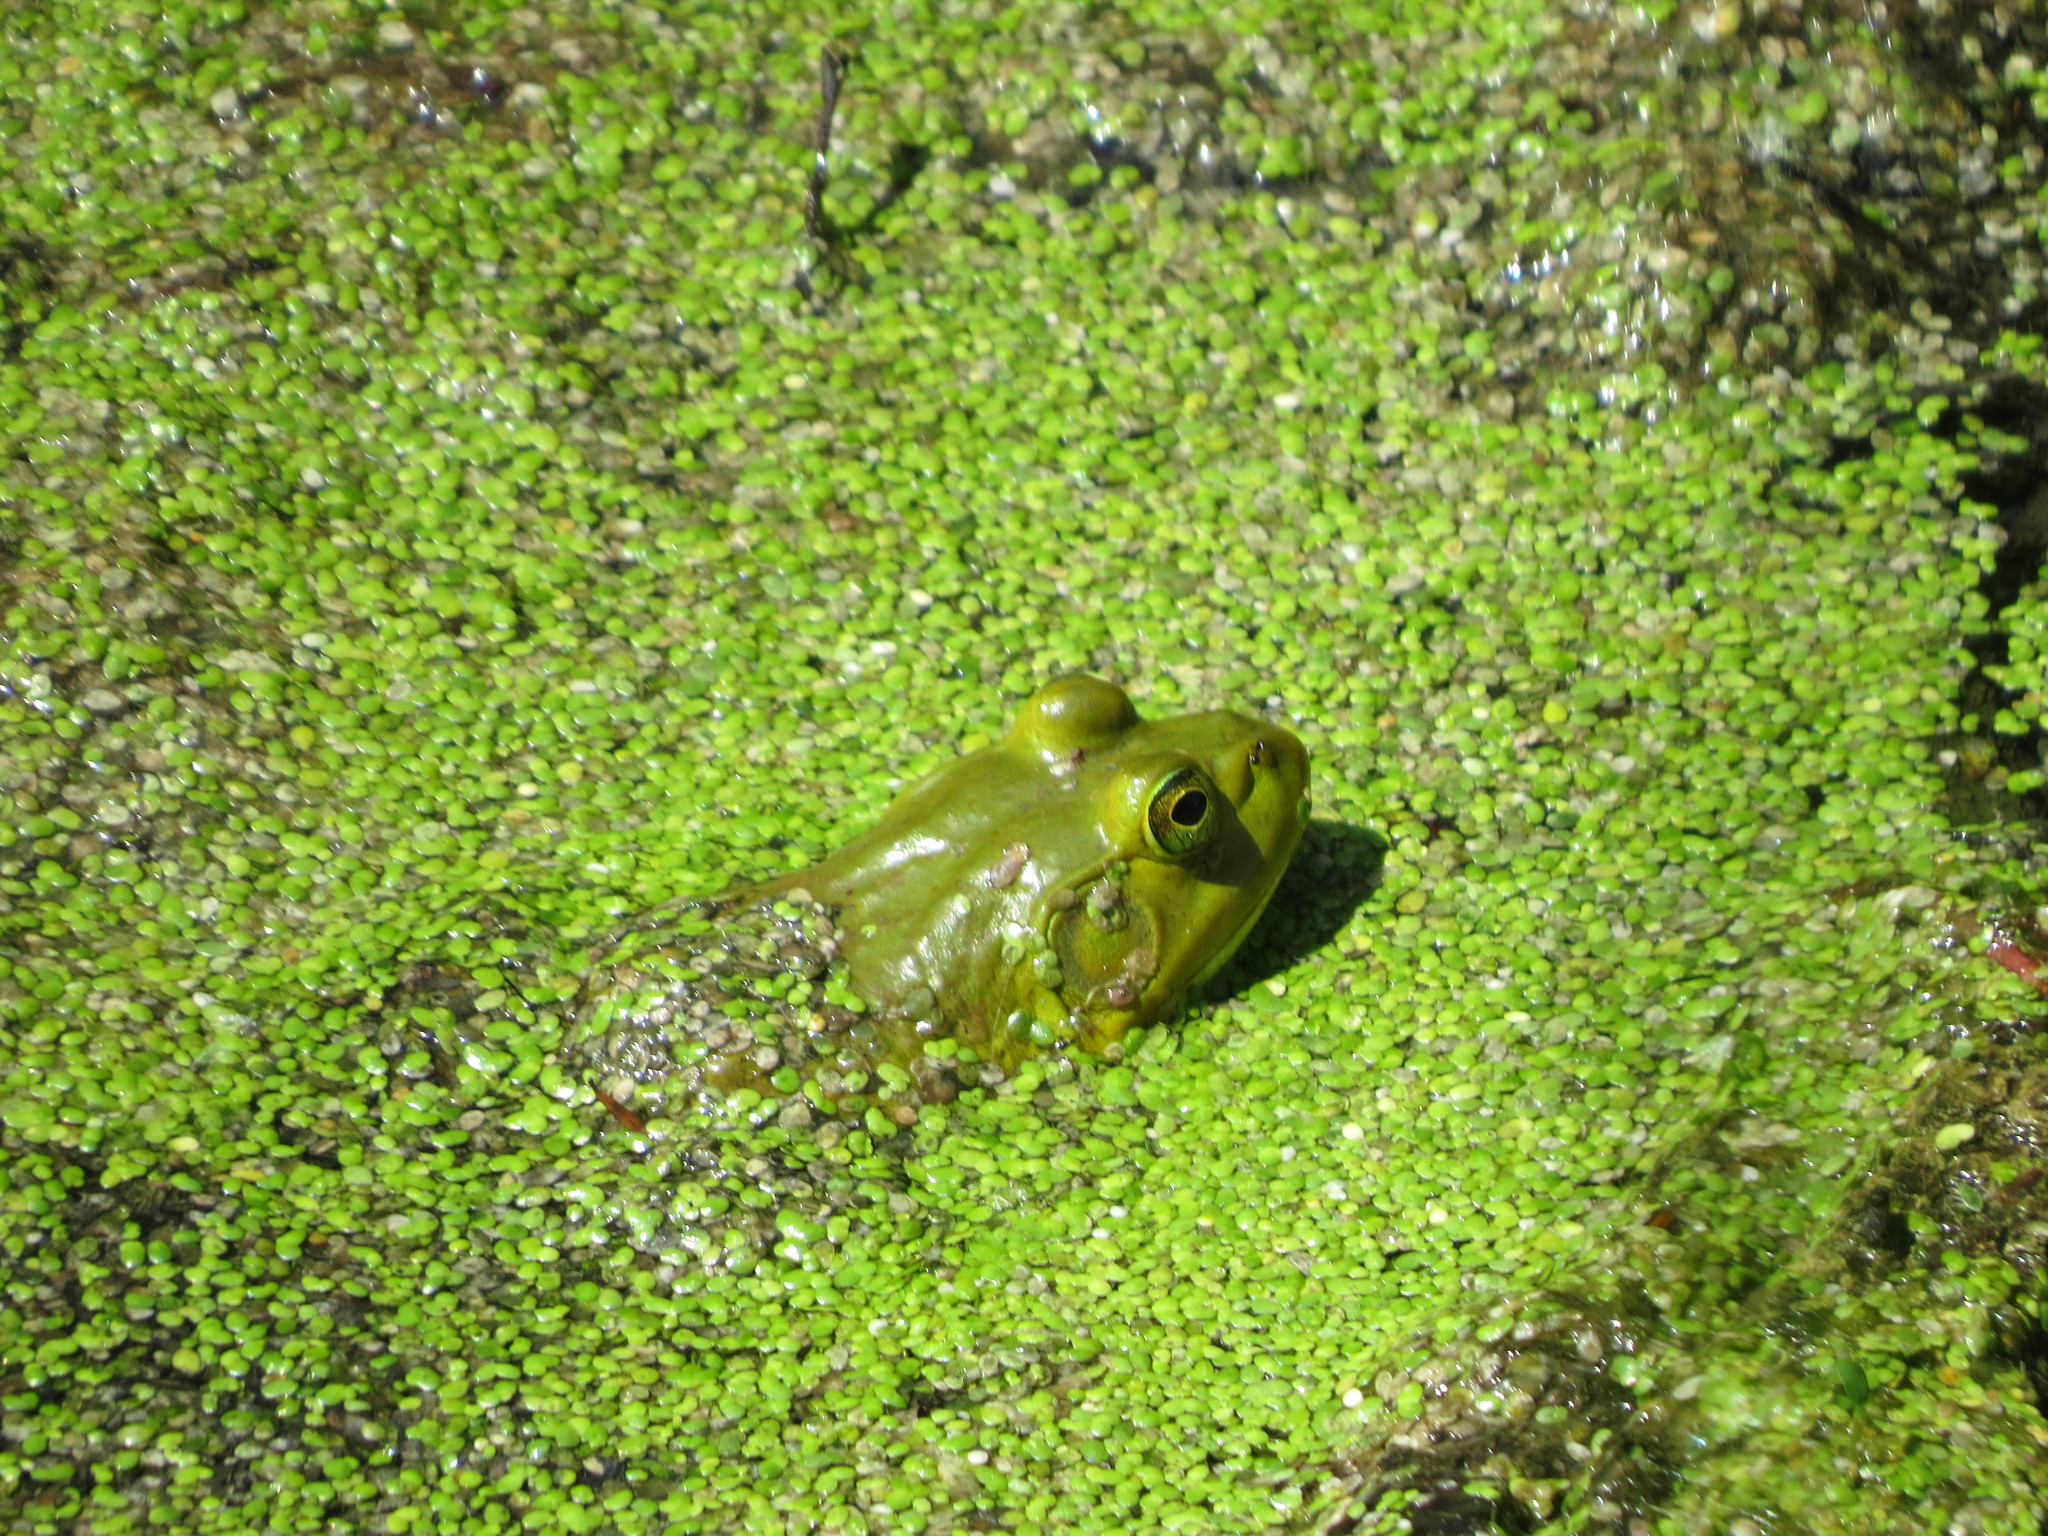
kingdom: Animalia
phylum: Chordata
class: Amphibia
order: Anura
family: Ranidae
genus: Lithobates
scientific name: Lithobates catesbeianus
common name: American bullfrog
